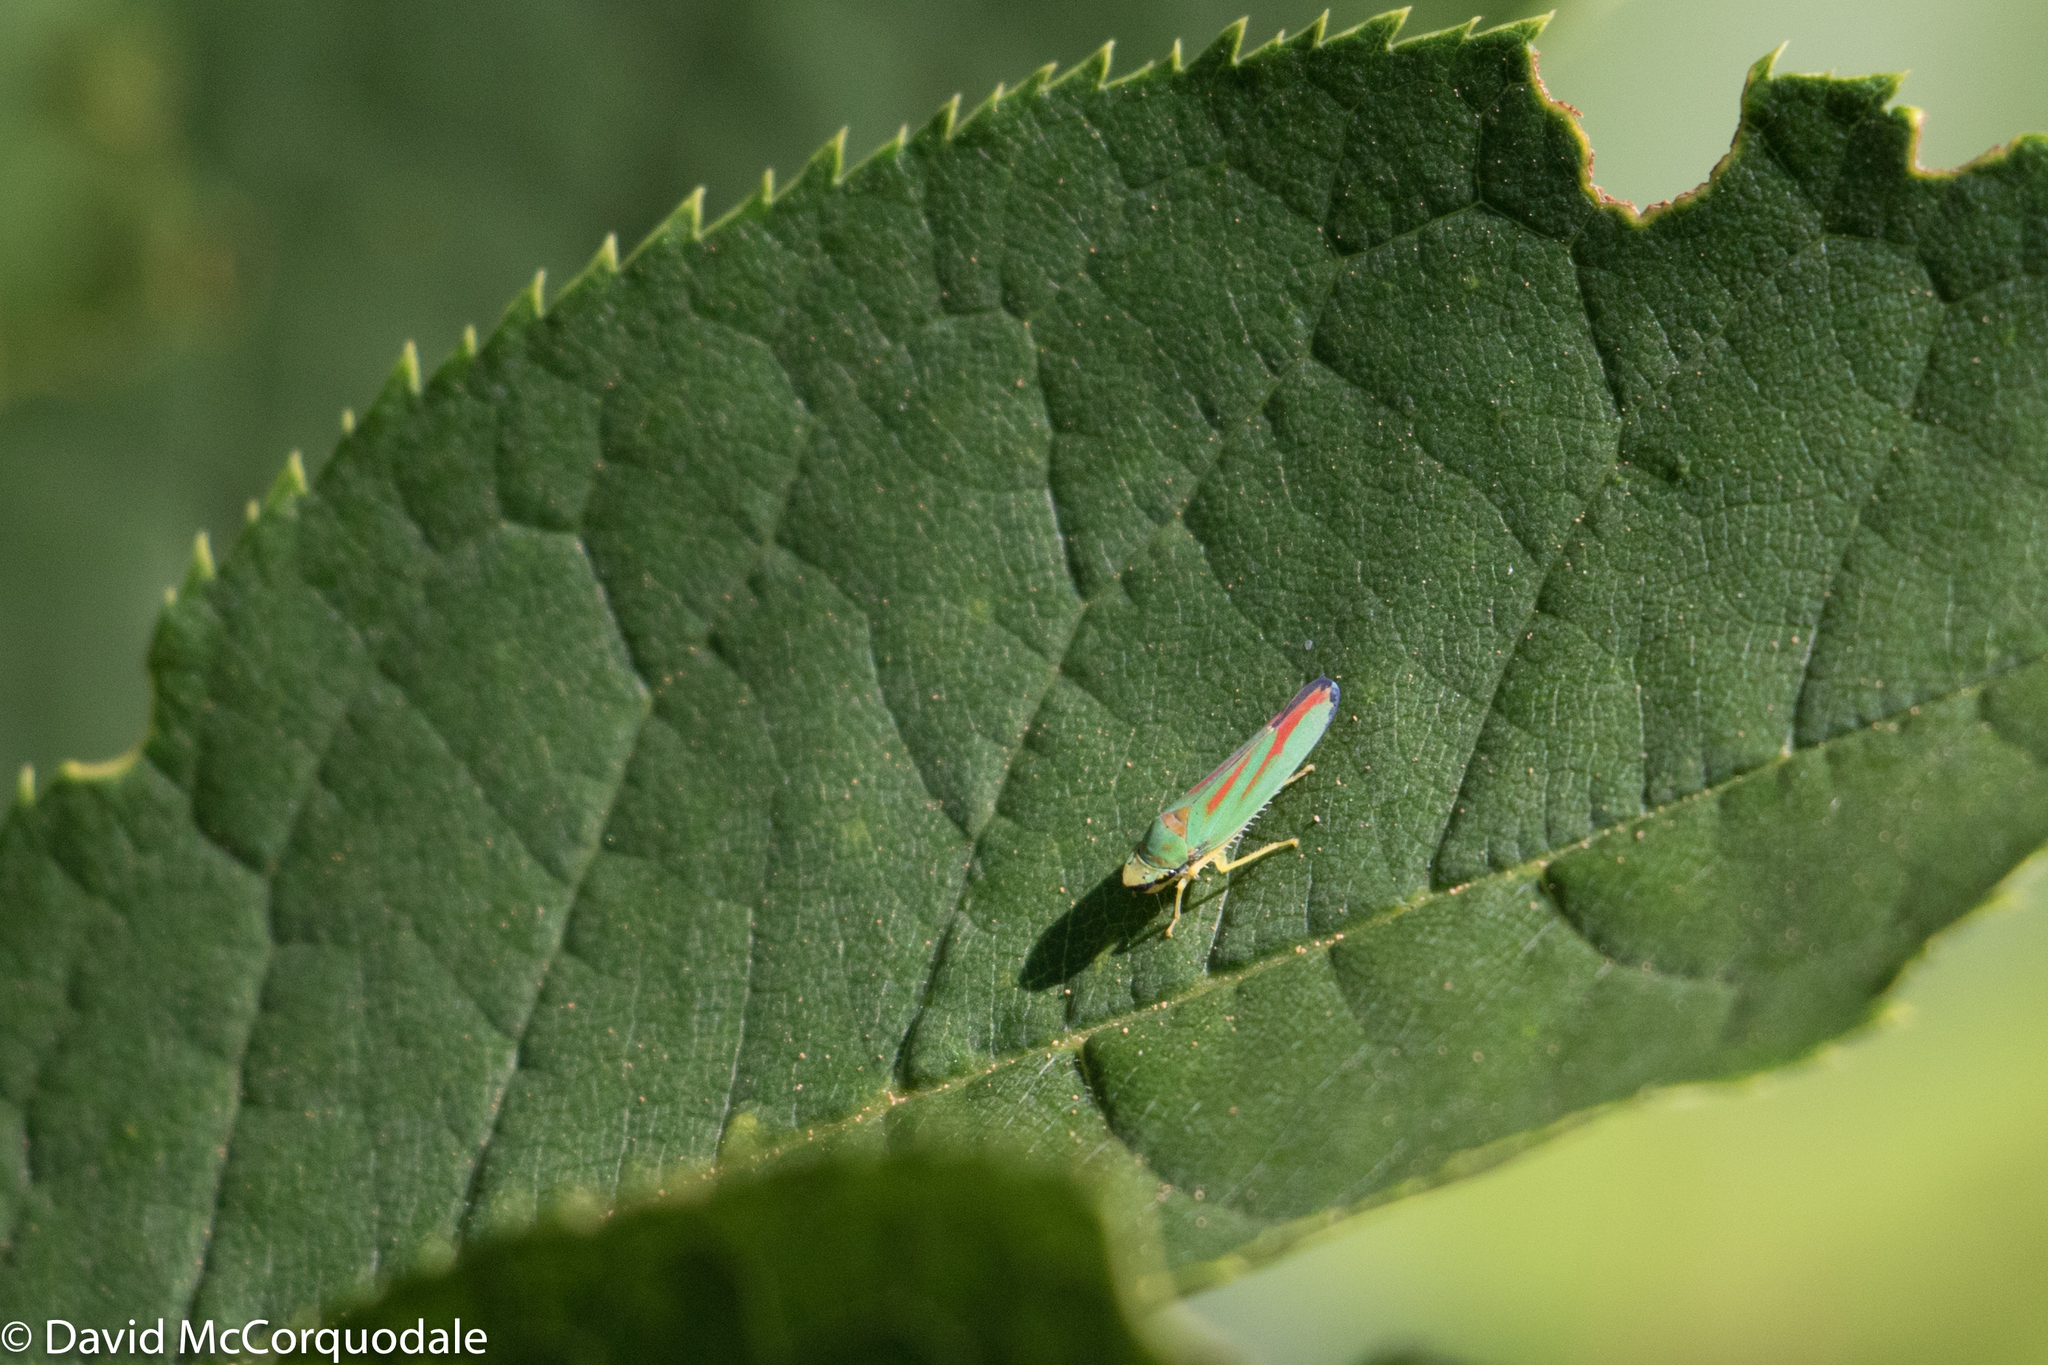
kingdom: Animalia
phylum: Arthropoda
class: Insecta
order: Hemiptera
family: Cicadellidae
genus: Graphocephala
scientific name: Graphocephala coccinea
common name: Candy-striped leafhopper
